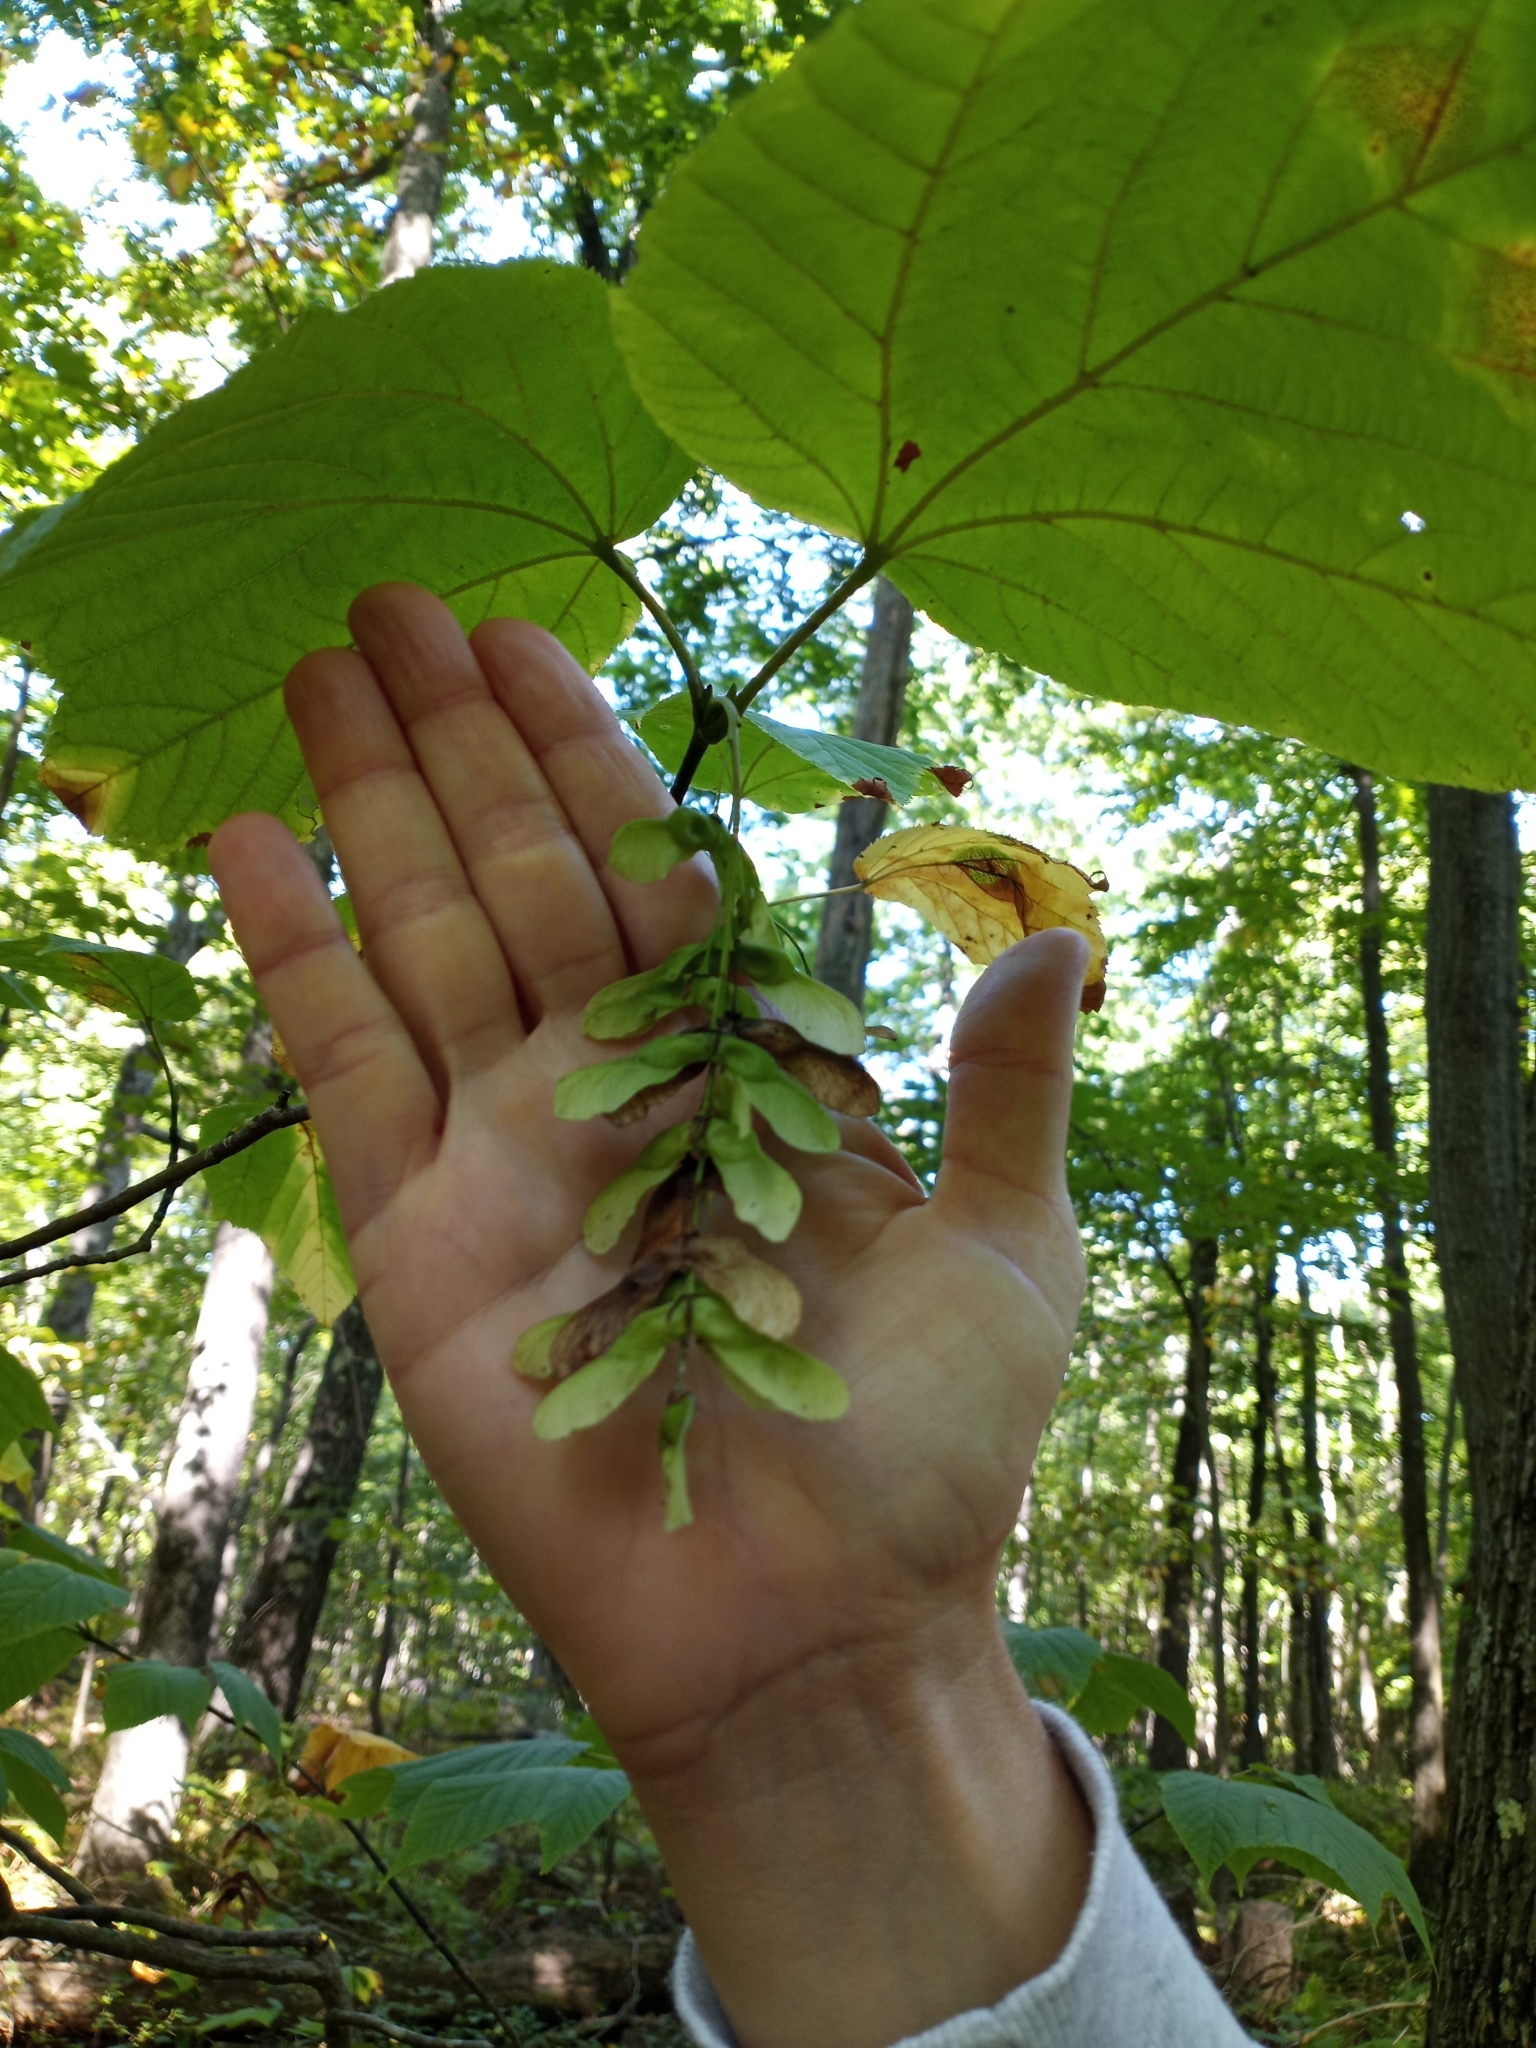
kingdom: Plantae
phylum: Tracheophyta
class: Magnoliopsida
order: Sapindales
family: Sapindaceae
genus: Acer
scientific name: Acer pensylvanicum
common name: Moosewood
